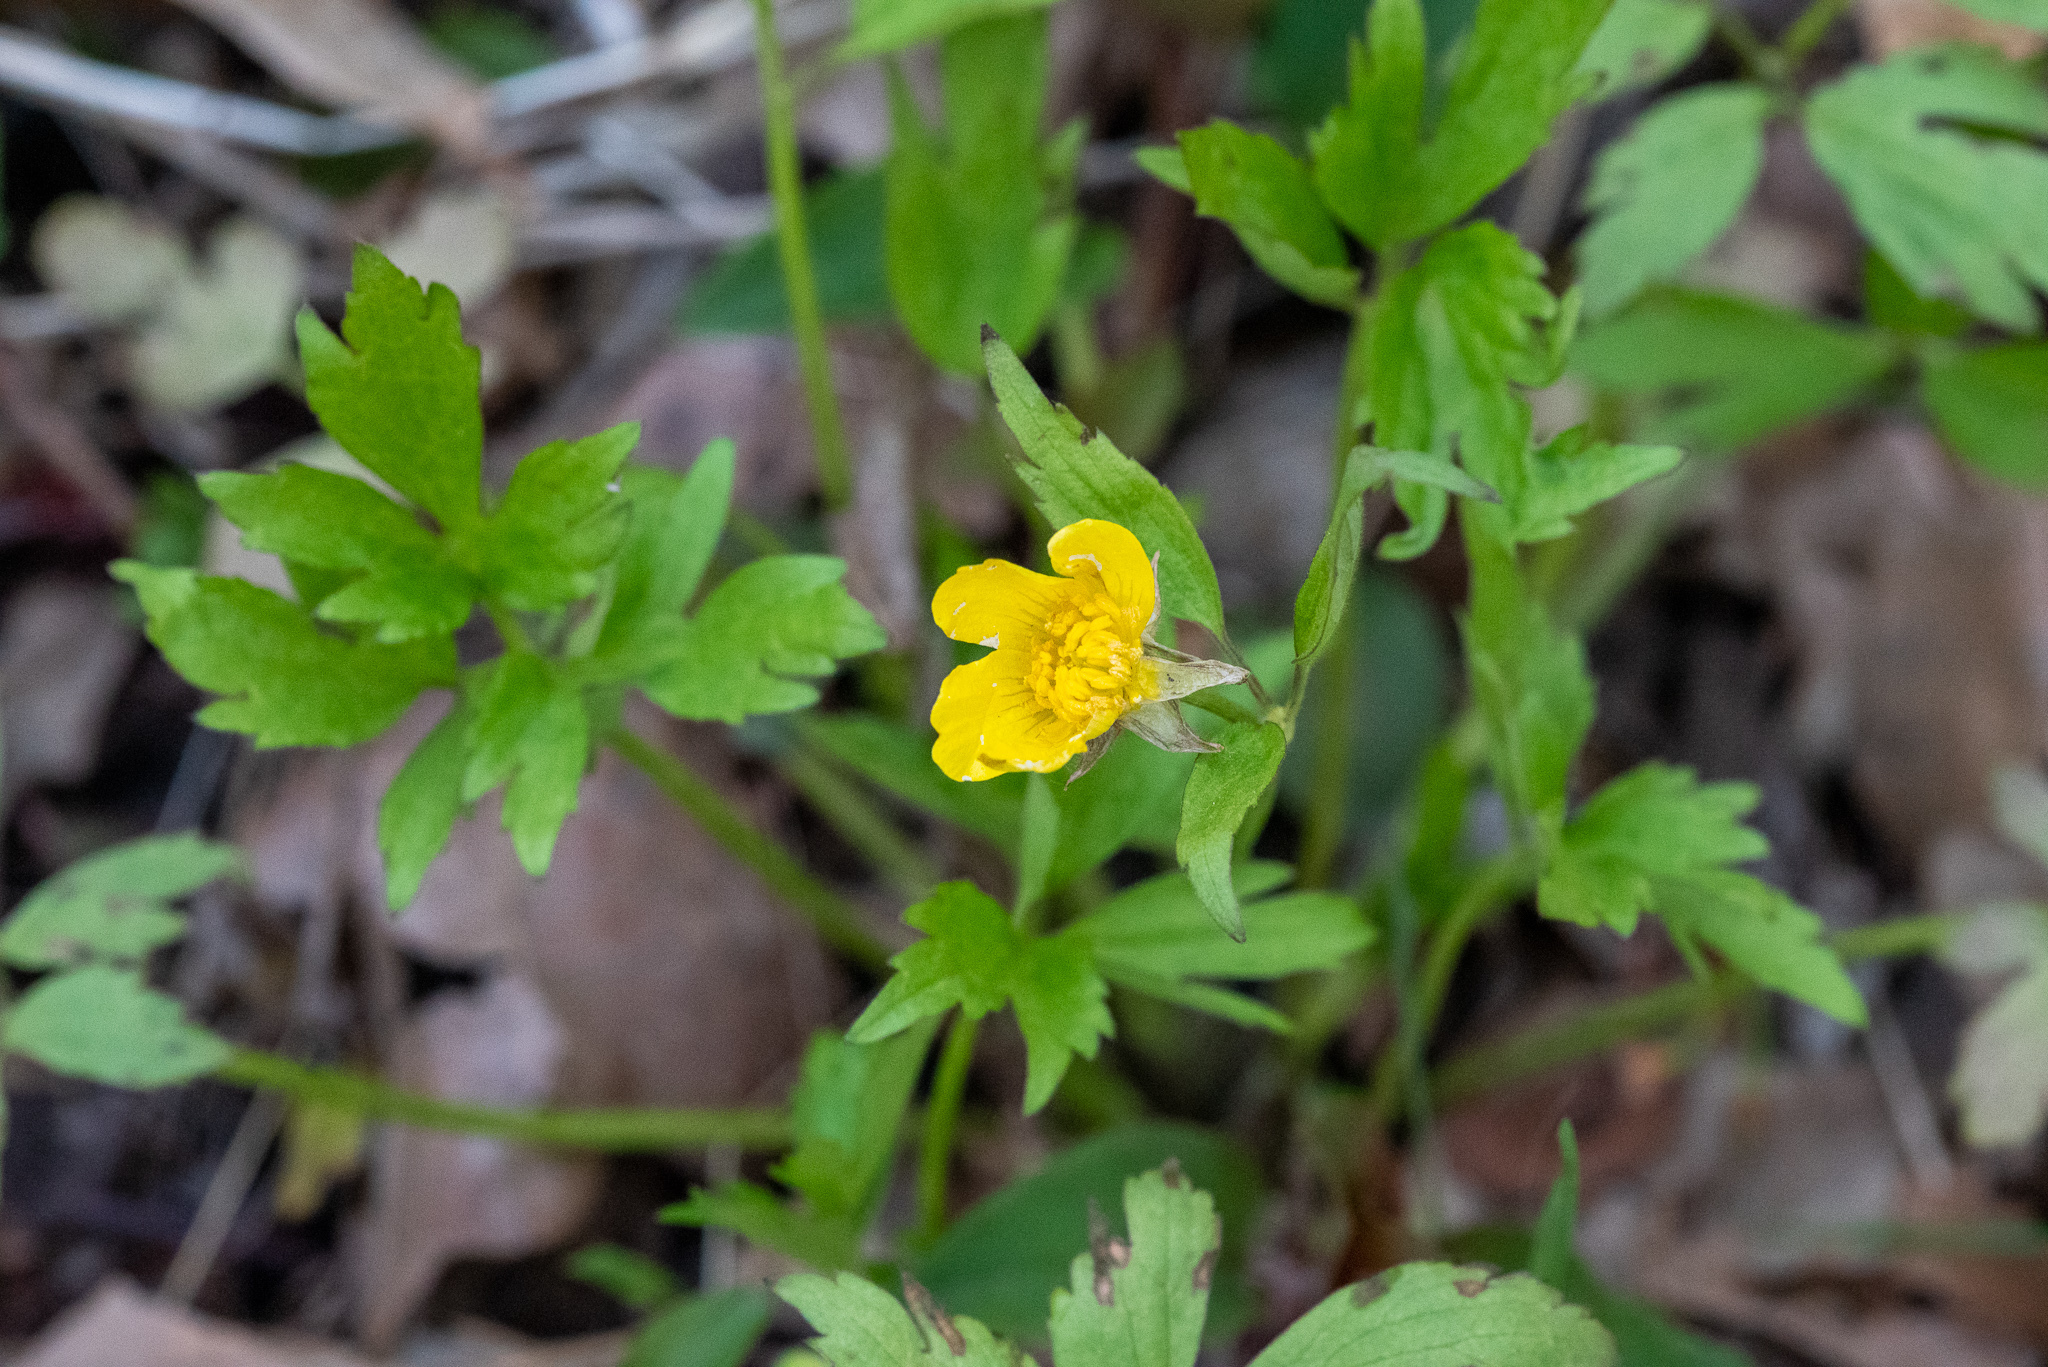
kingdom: Plantae
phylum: Tracheophyta
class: Magnoliopsida
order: Ranunculales
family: Ranunculaceae
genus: Ranunculus
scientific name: Ranunculus hispidus
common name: Bristly buttercup
